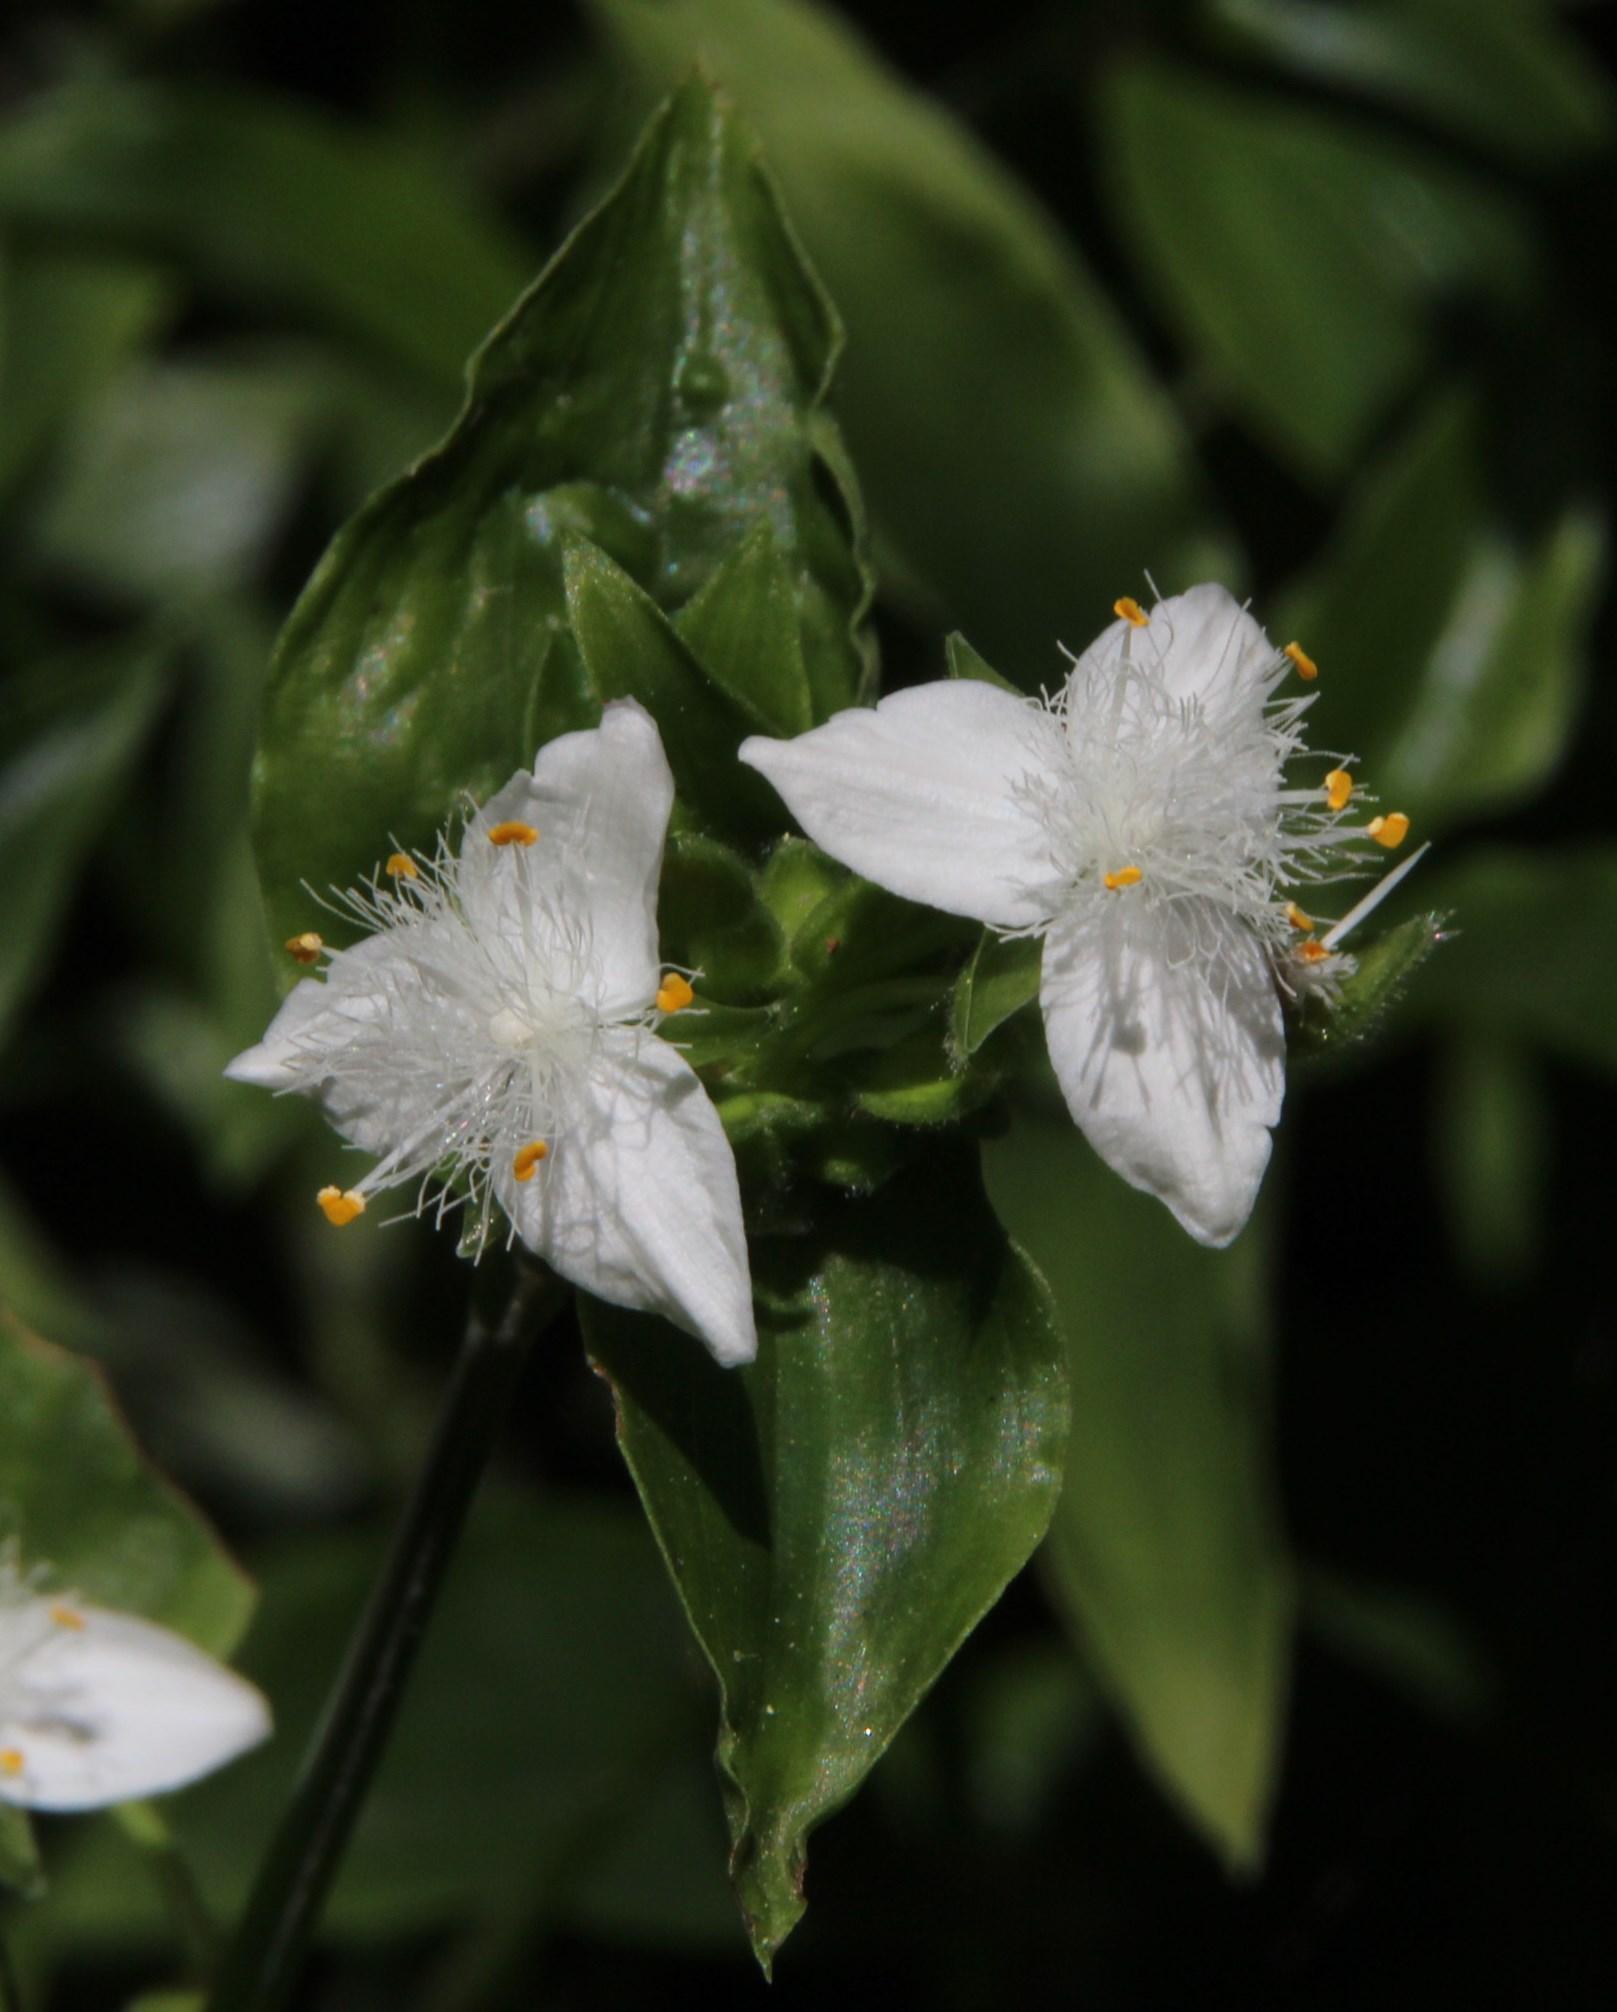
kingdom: Plantae
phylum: Tracheophyta
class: Liliopsida
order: Commelinales
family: Commelinaceae
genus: Tradescantia
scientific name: Tradescantia fluminensis
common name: Wandering-jew
